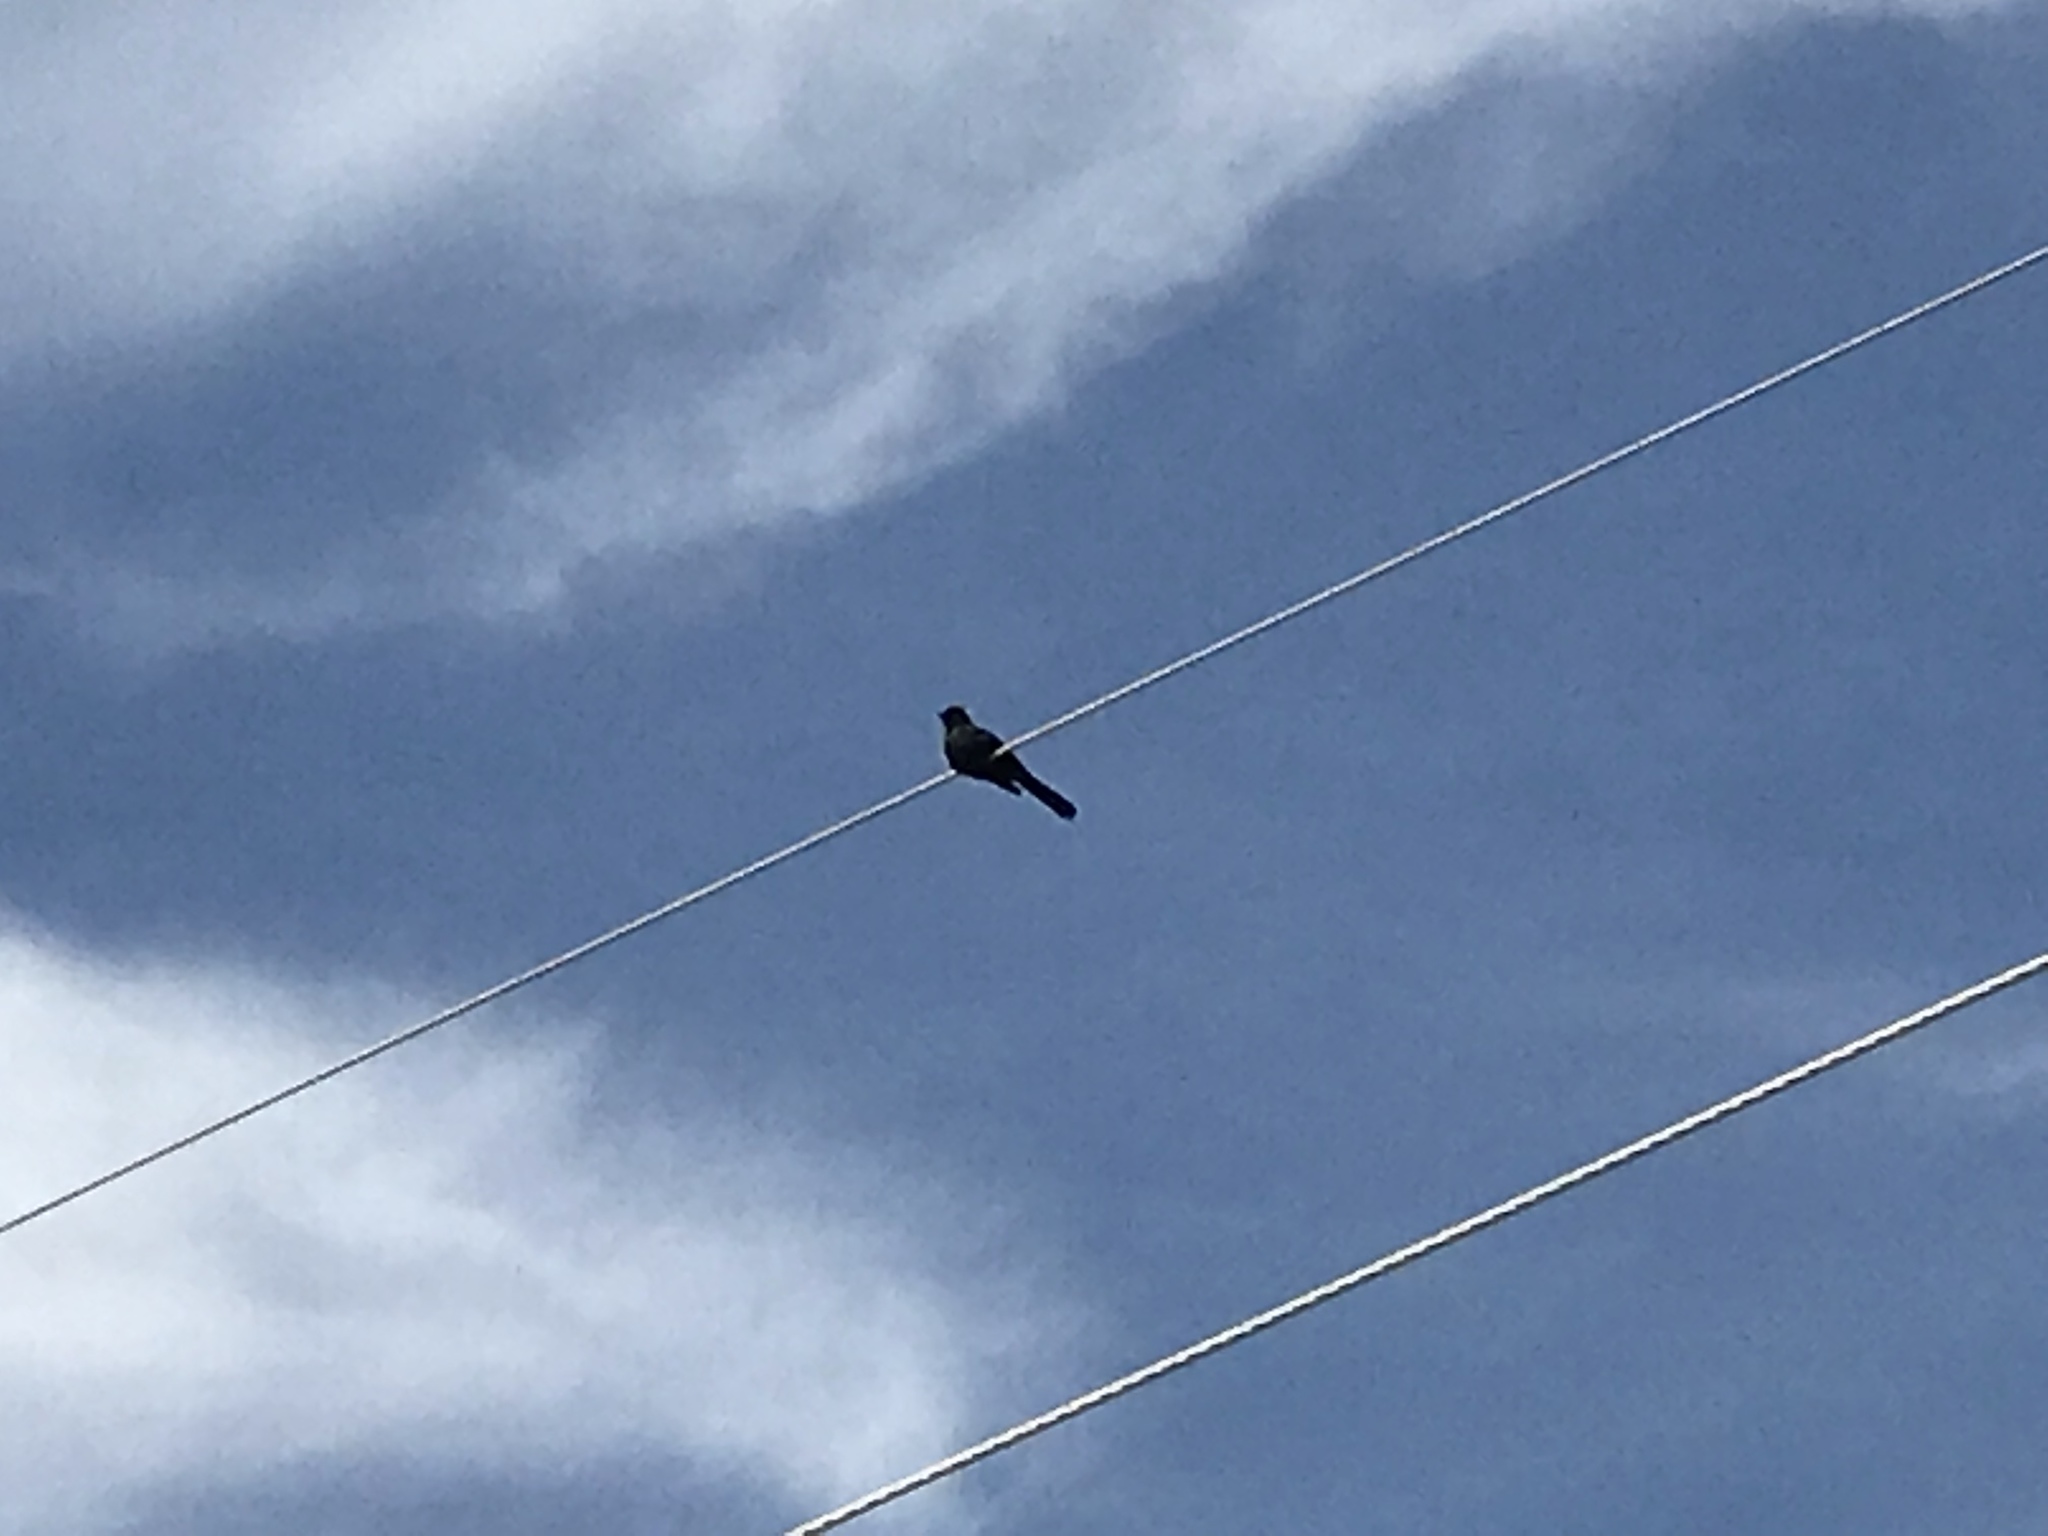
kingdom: Animalia
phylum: Chordata
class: Aves
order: Passeriformes
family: Ptilogonatidae
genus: Phainopepla
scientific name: Phainopepla nitens
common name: Phainopepla
